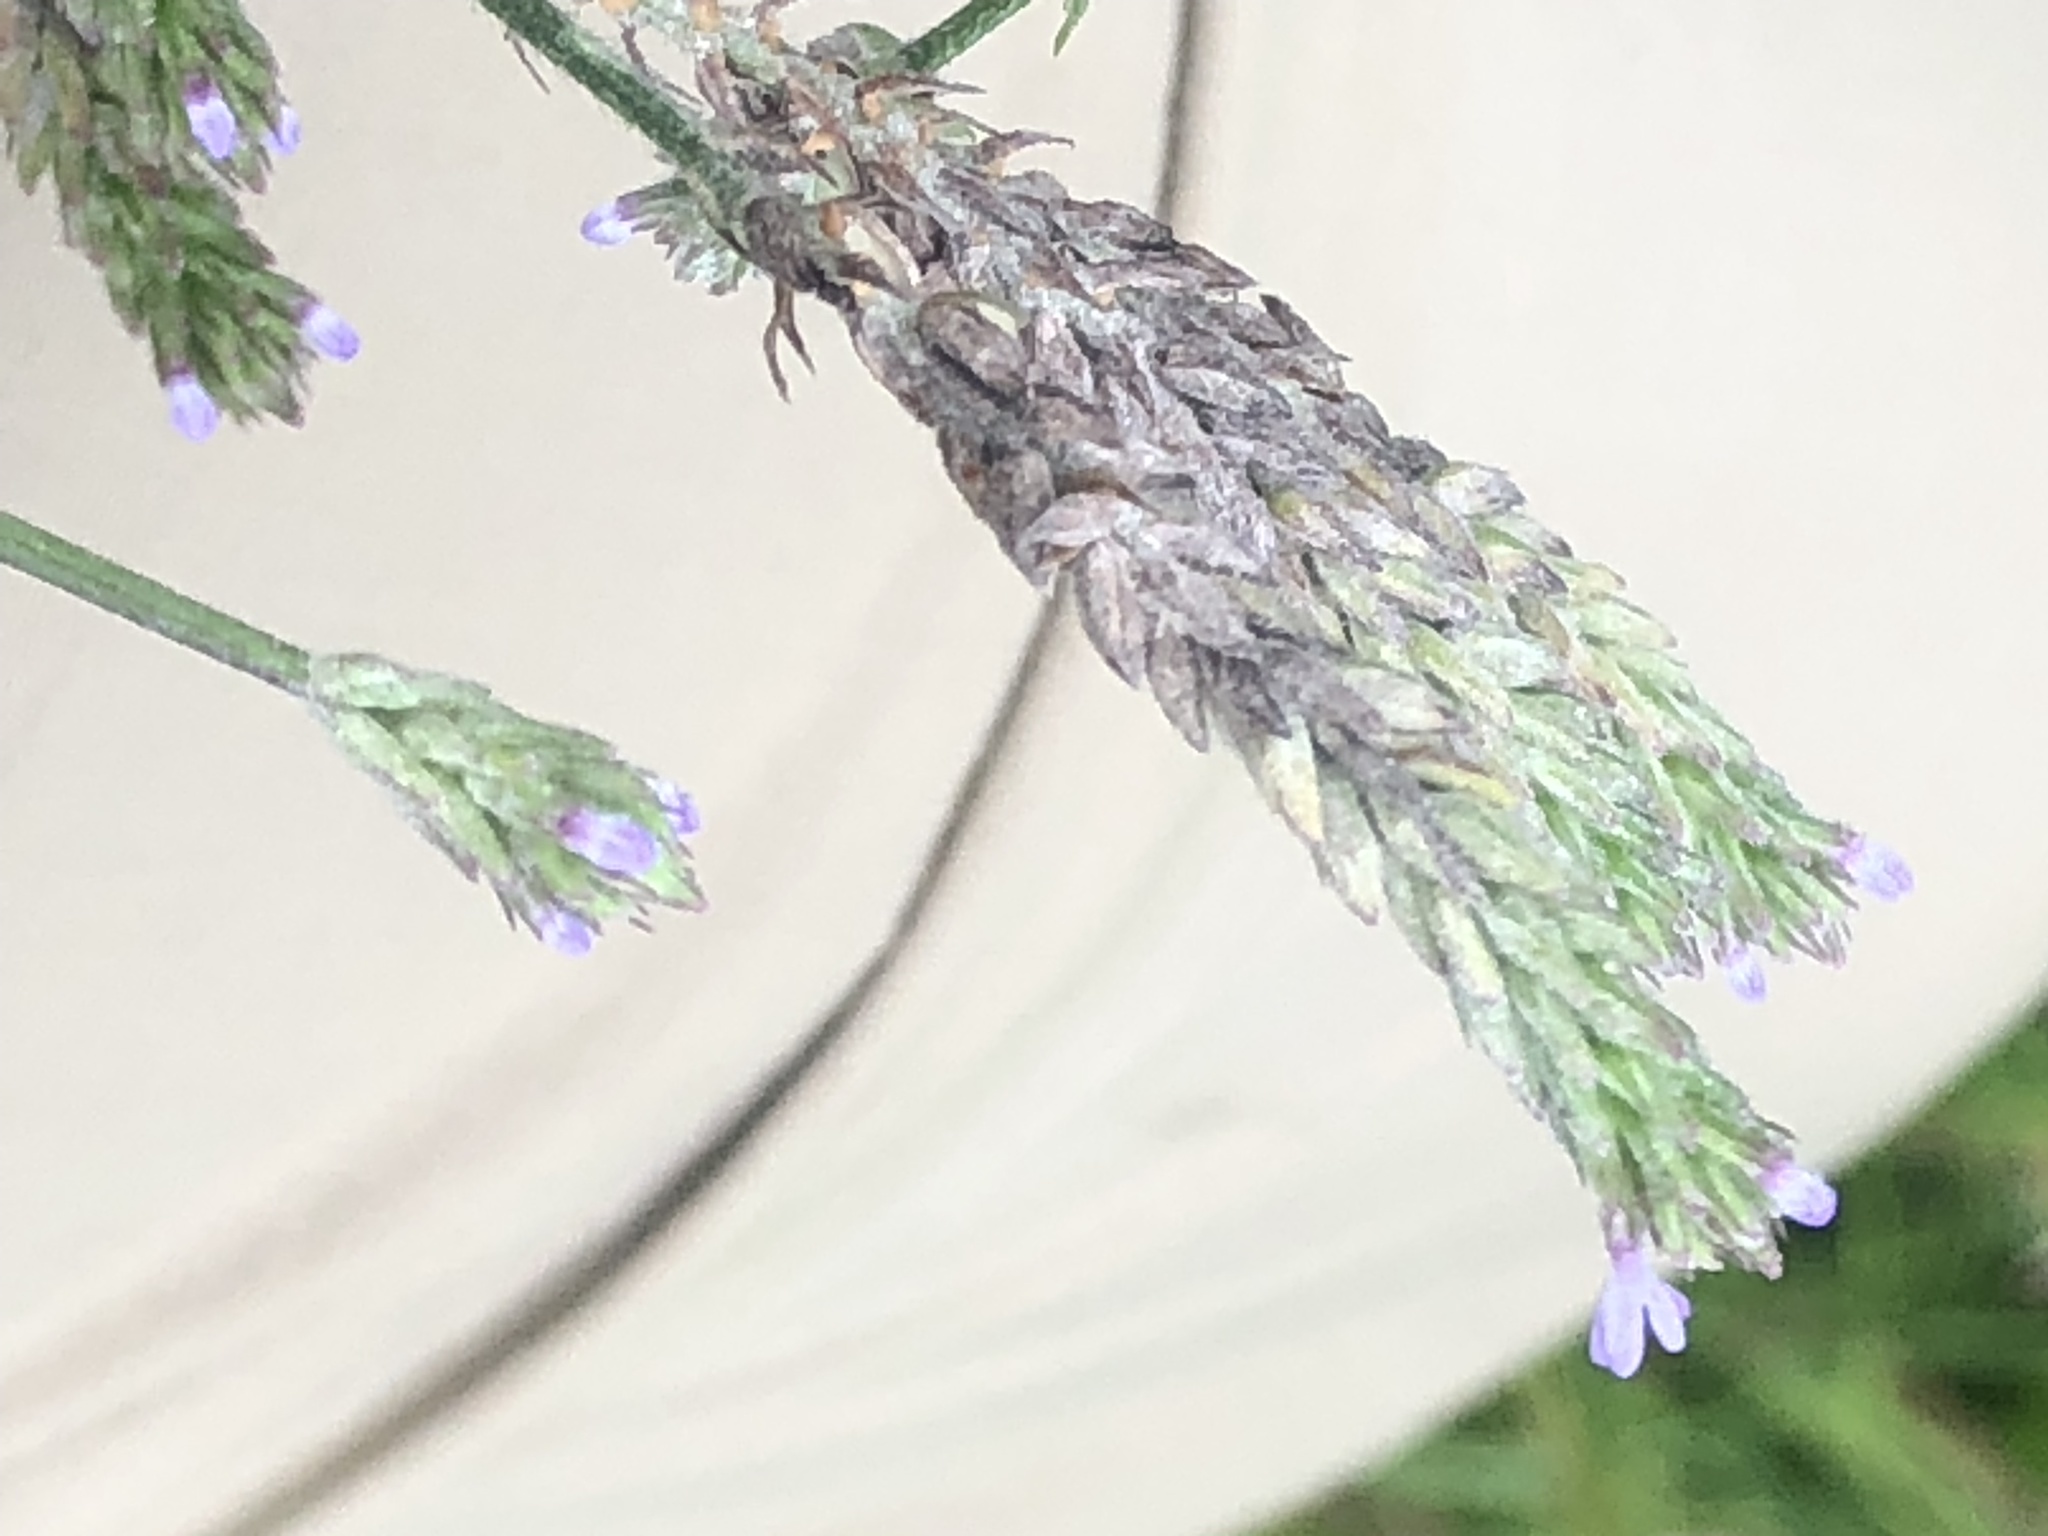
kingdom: Plantae
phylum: Tracheophyta
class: Magnoliopsida
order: Lamiales
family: Verbenaceae
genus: Verbena
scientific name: Verbena brasiliensis
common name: Brazilian vervain
